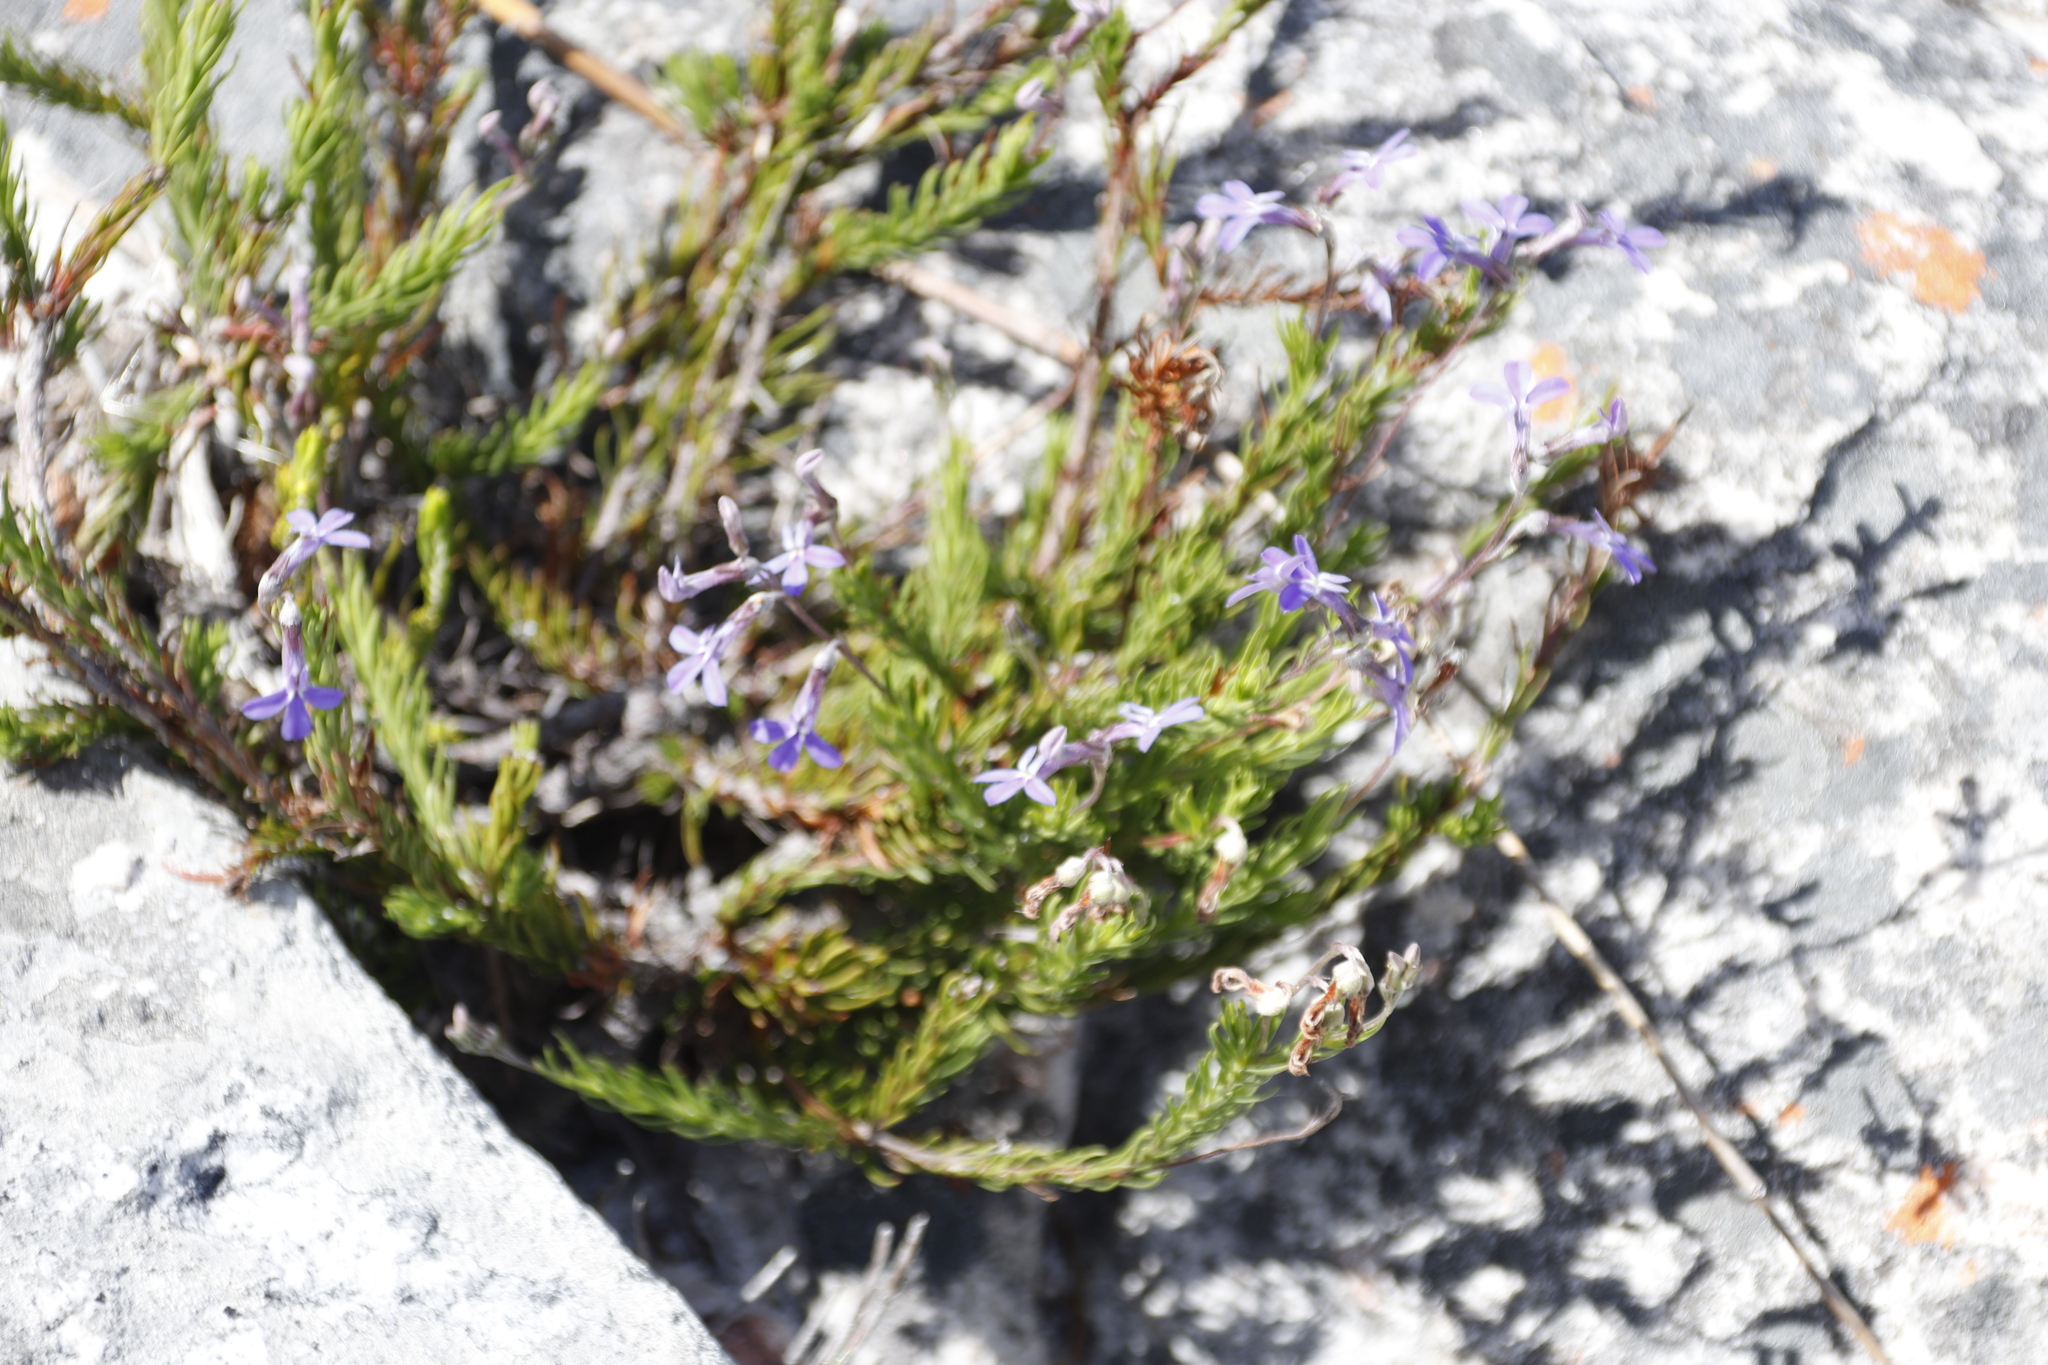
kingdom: Plantae
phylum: Tracheophyta
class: Magnoliopsida
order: Asterales
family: Campanulaceae
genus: Lobelia
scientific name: Lobelia pinifolia
